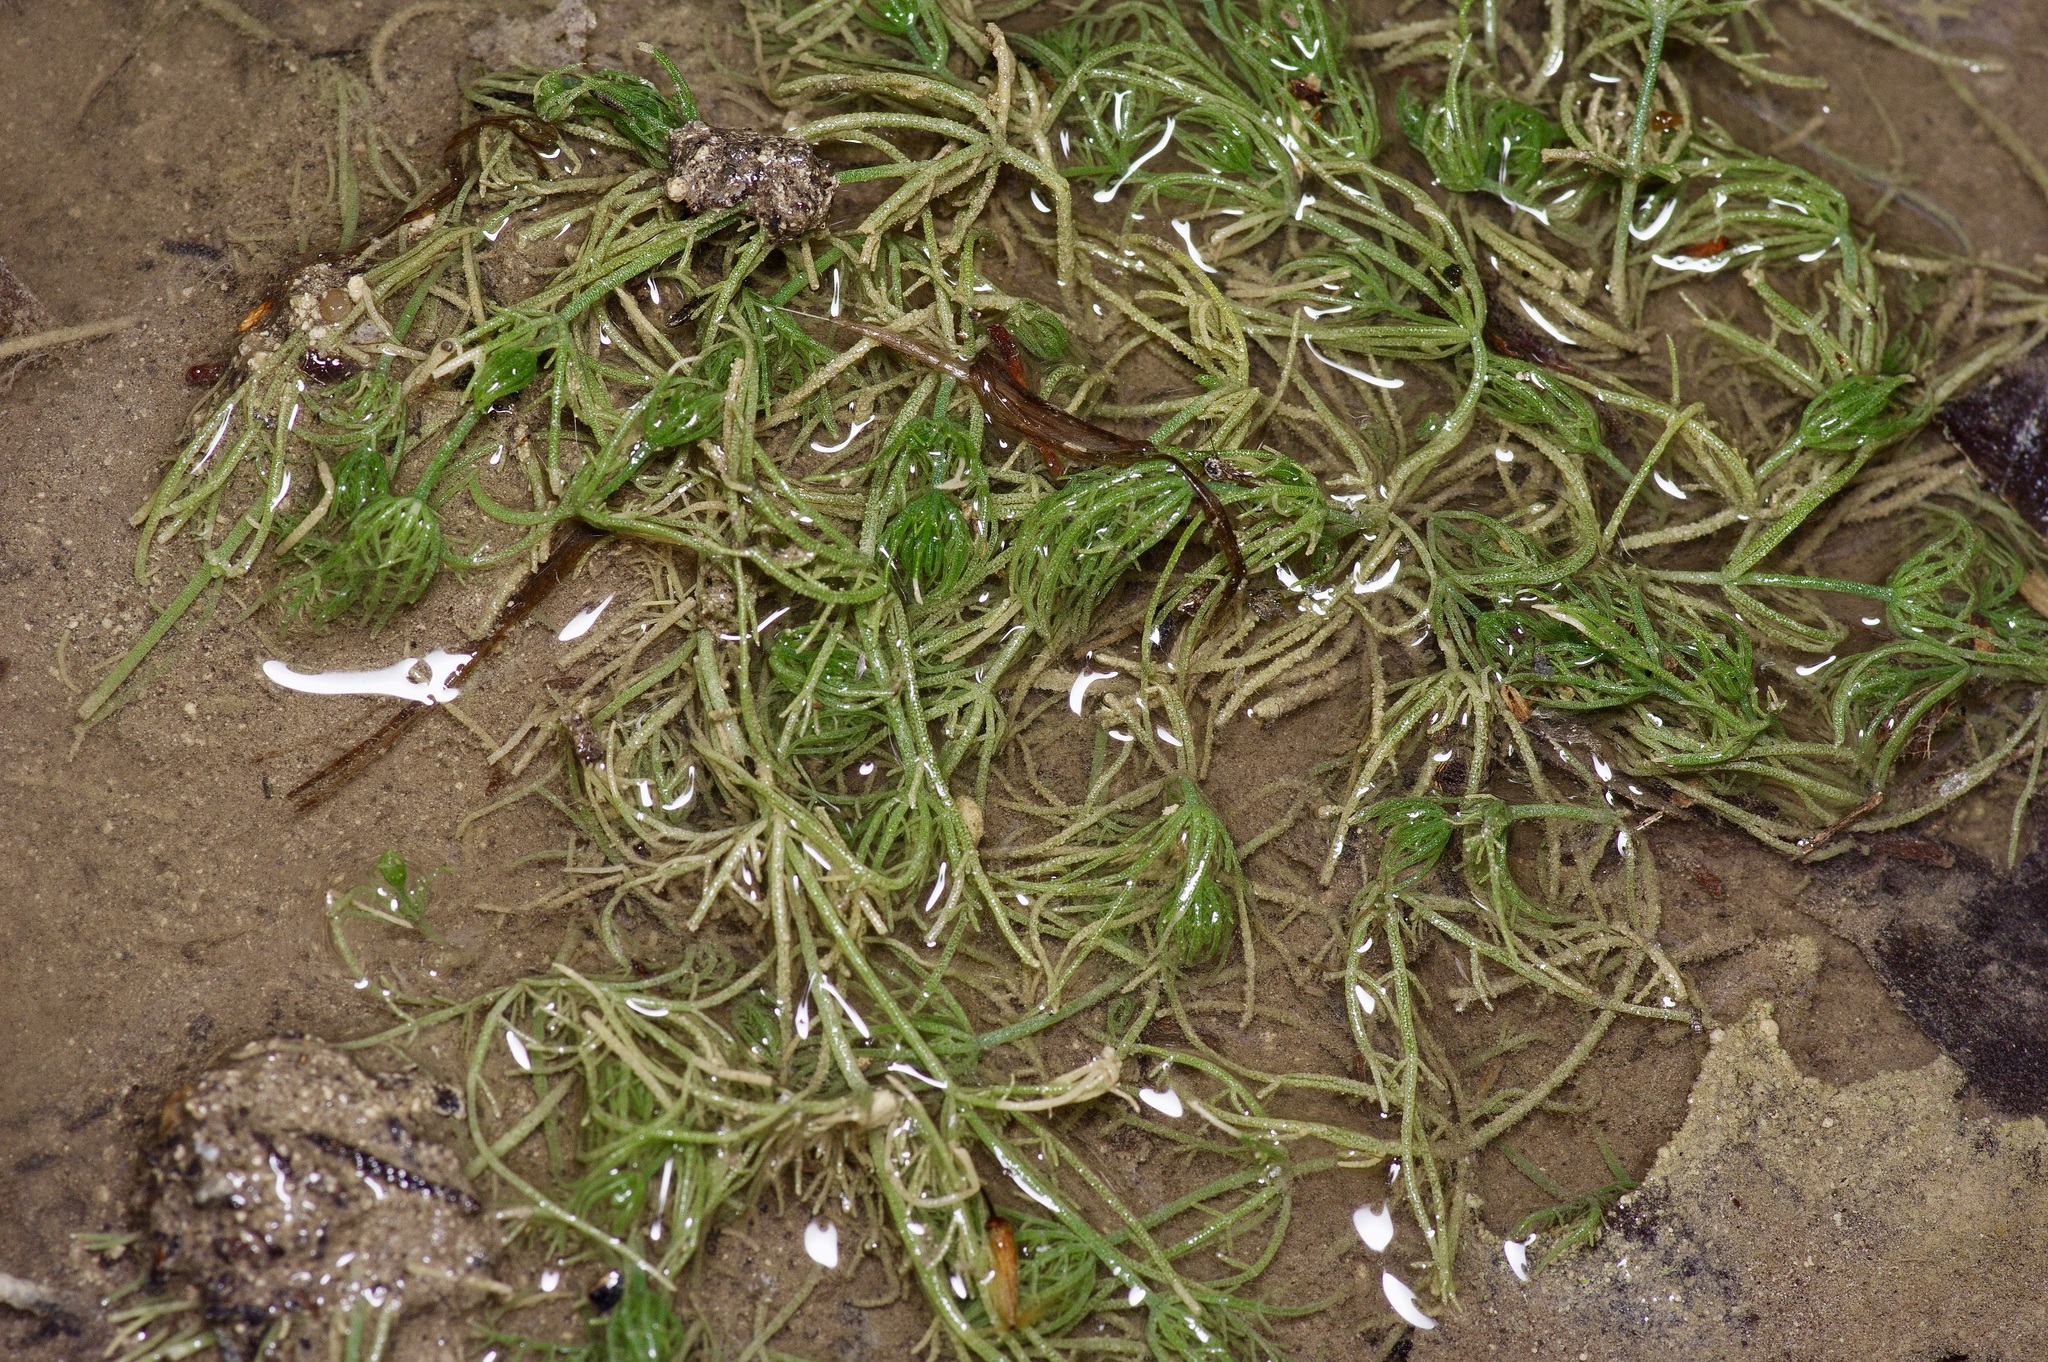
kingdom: Plantae
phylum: Charophyta
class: Charophyceae
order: Charales
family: Characeae
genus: Chara
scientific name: Chara contraria
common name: Opposite stonewort
